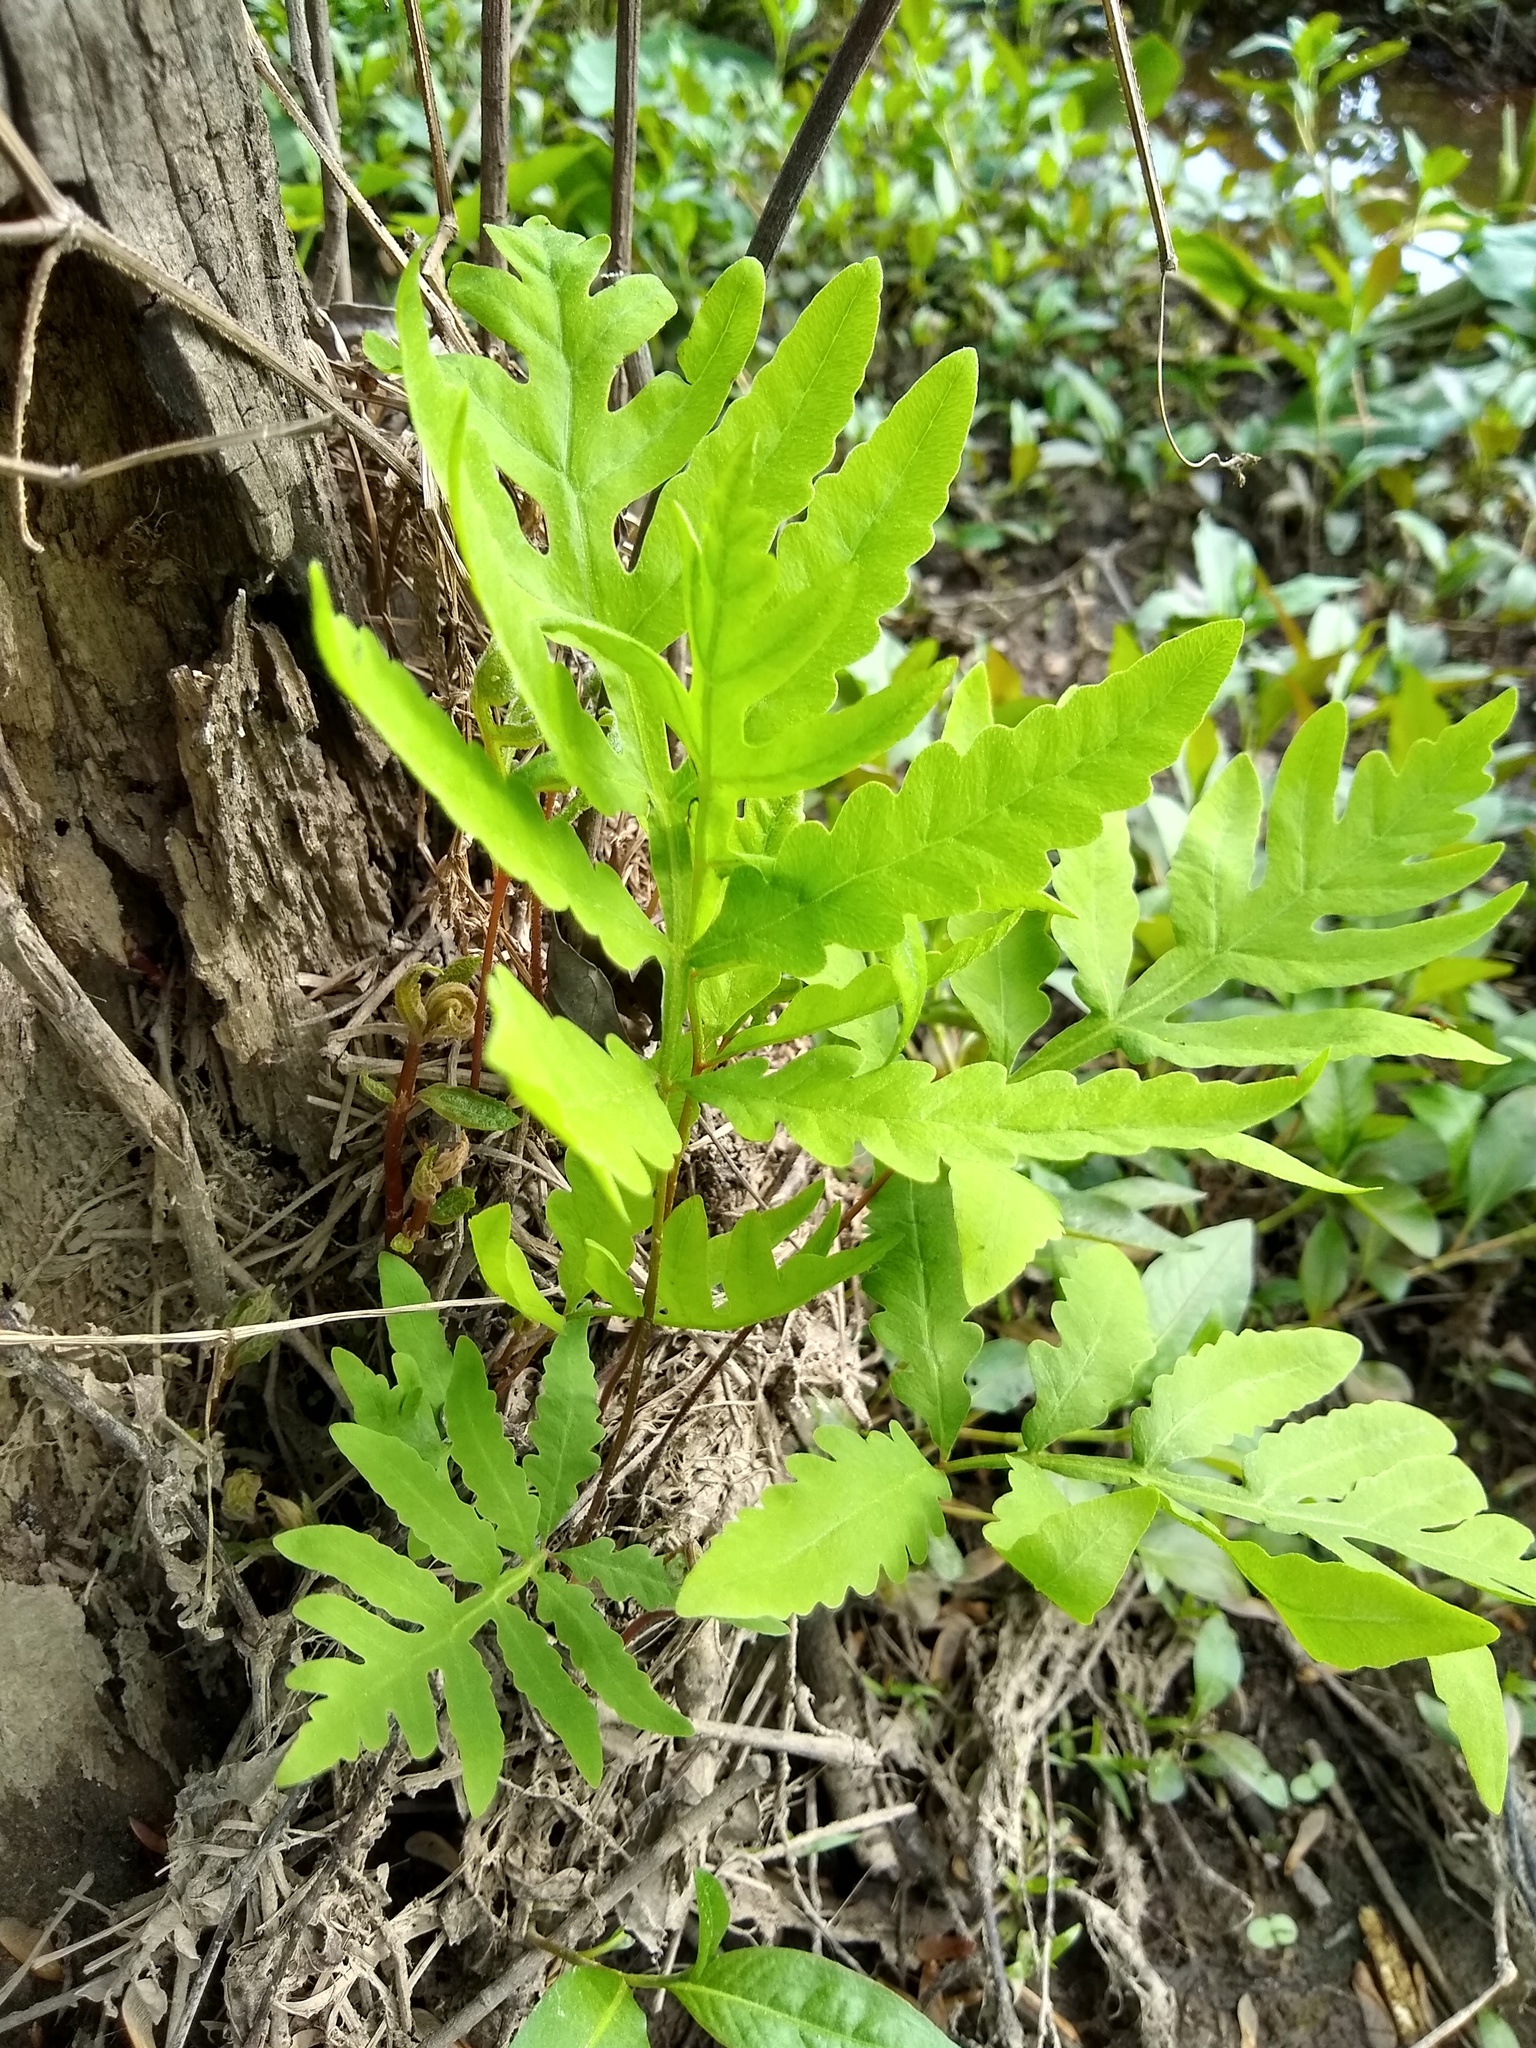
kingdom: Plantae
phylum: Tracheophyta
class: Polypodiopsida
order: Polypodiales
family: Onocleaceae
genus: Onoclea
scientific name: Onoclea sensibilis
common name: Sensitive fern
